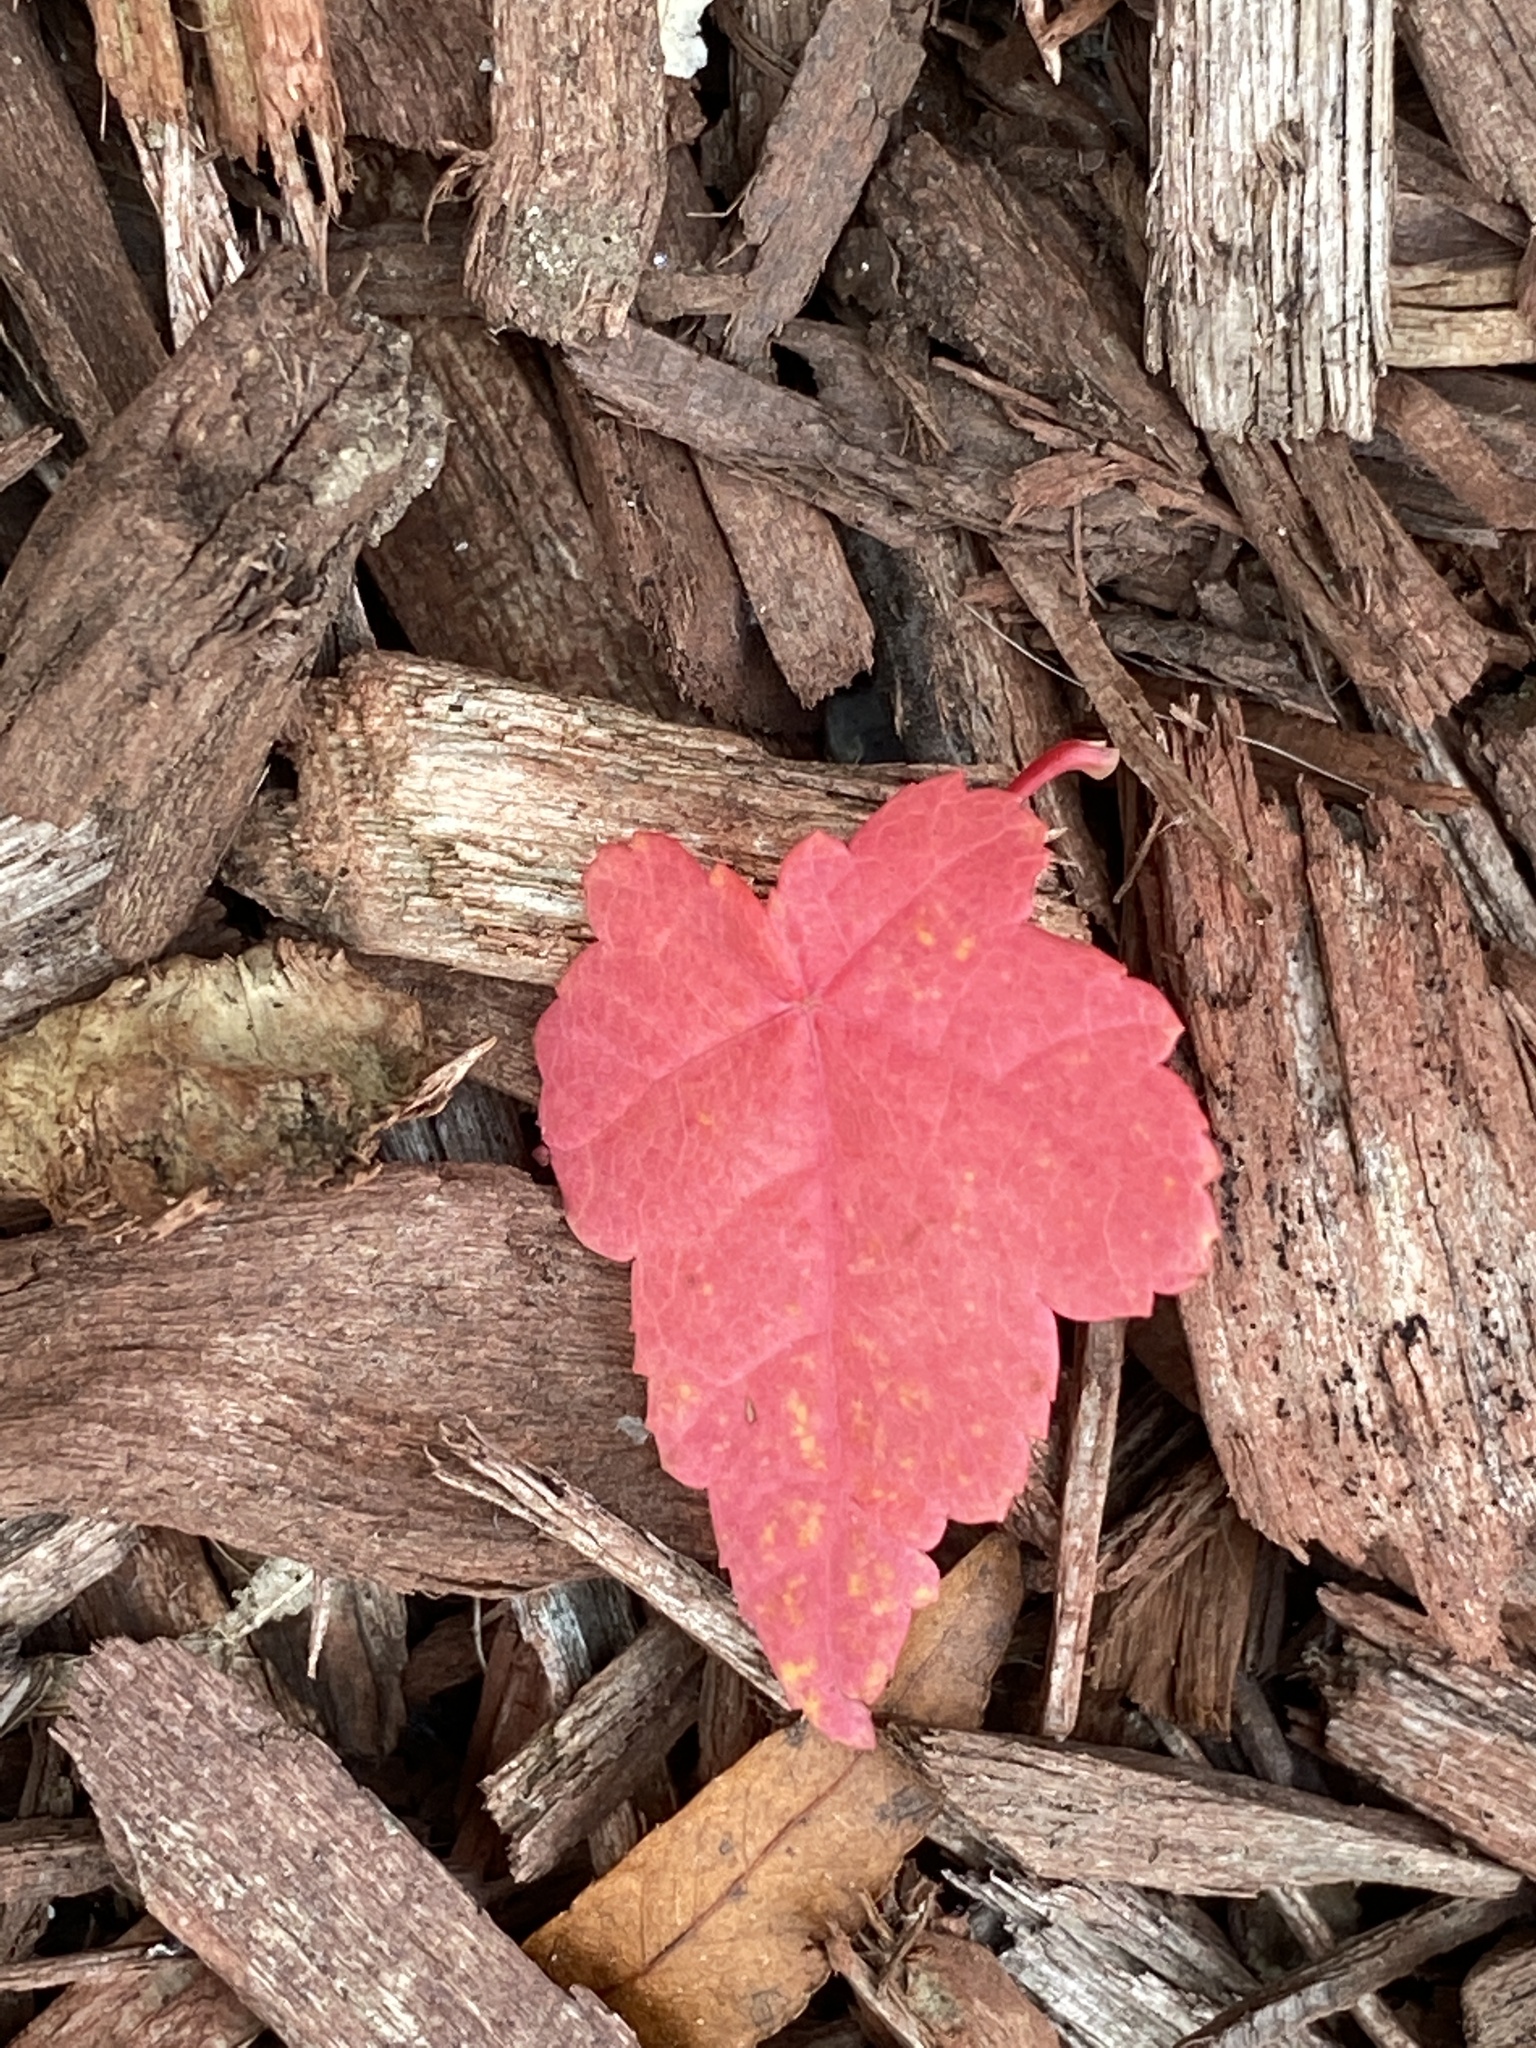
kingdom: Plantae
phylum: Tracheophyta
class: Magnoliopsida
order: Sapindales
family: Sapindaceae
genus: Acer
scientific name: Acer rubrum
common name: Red maple
